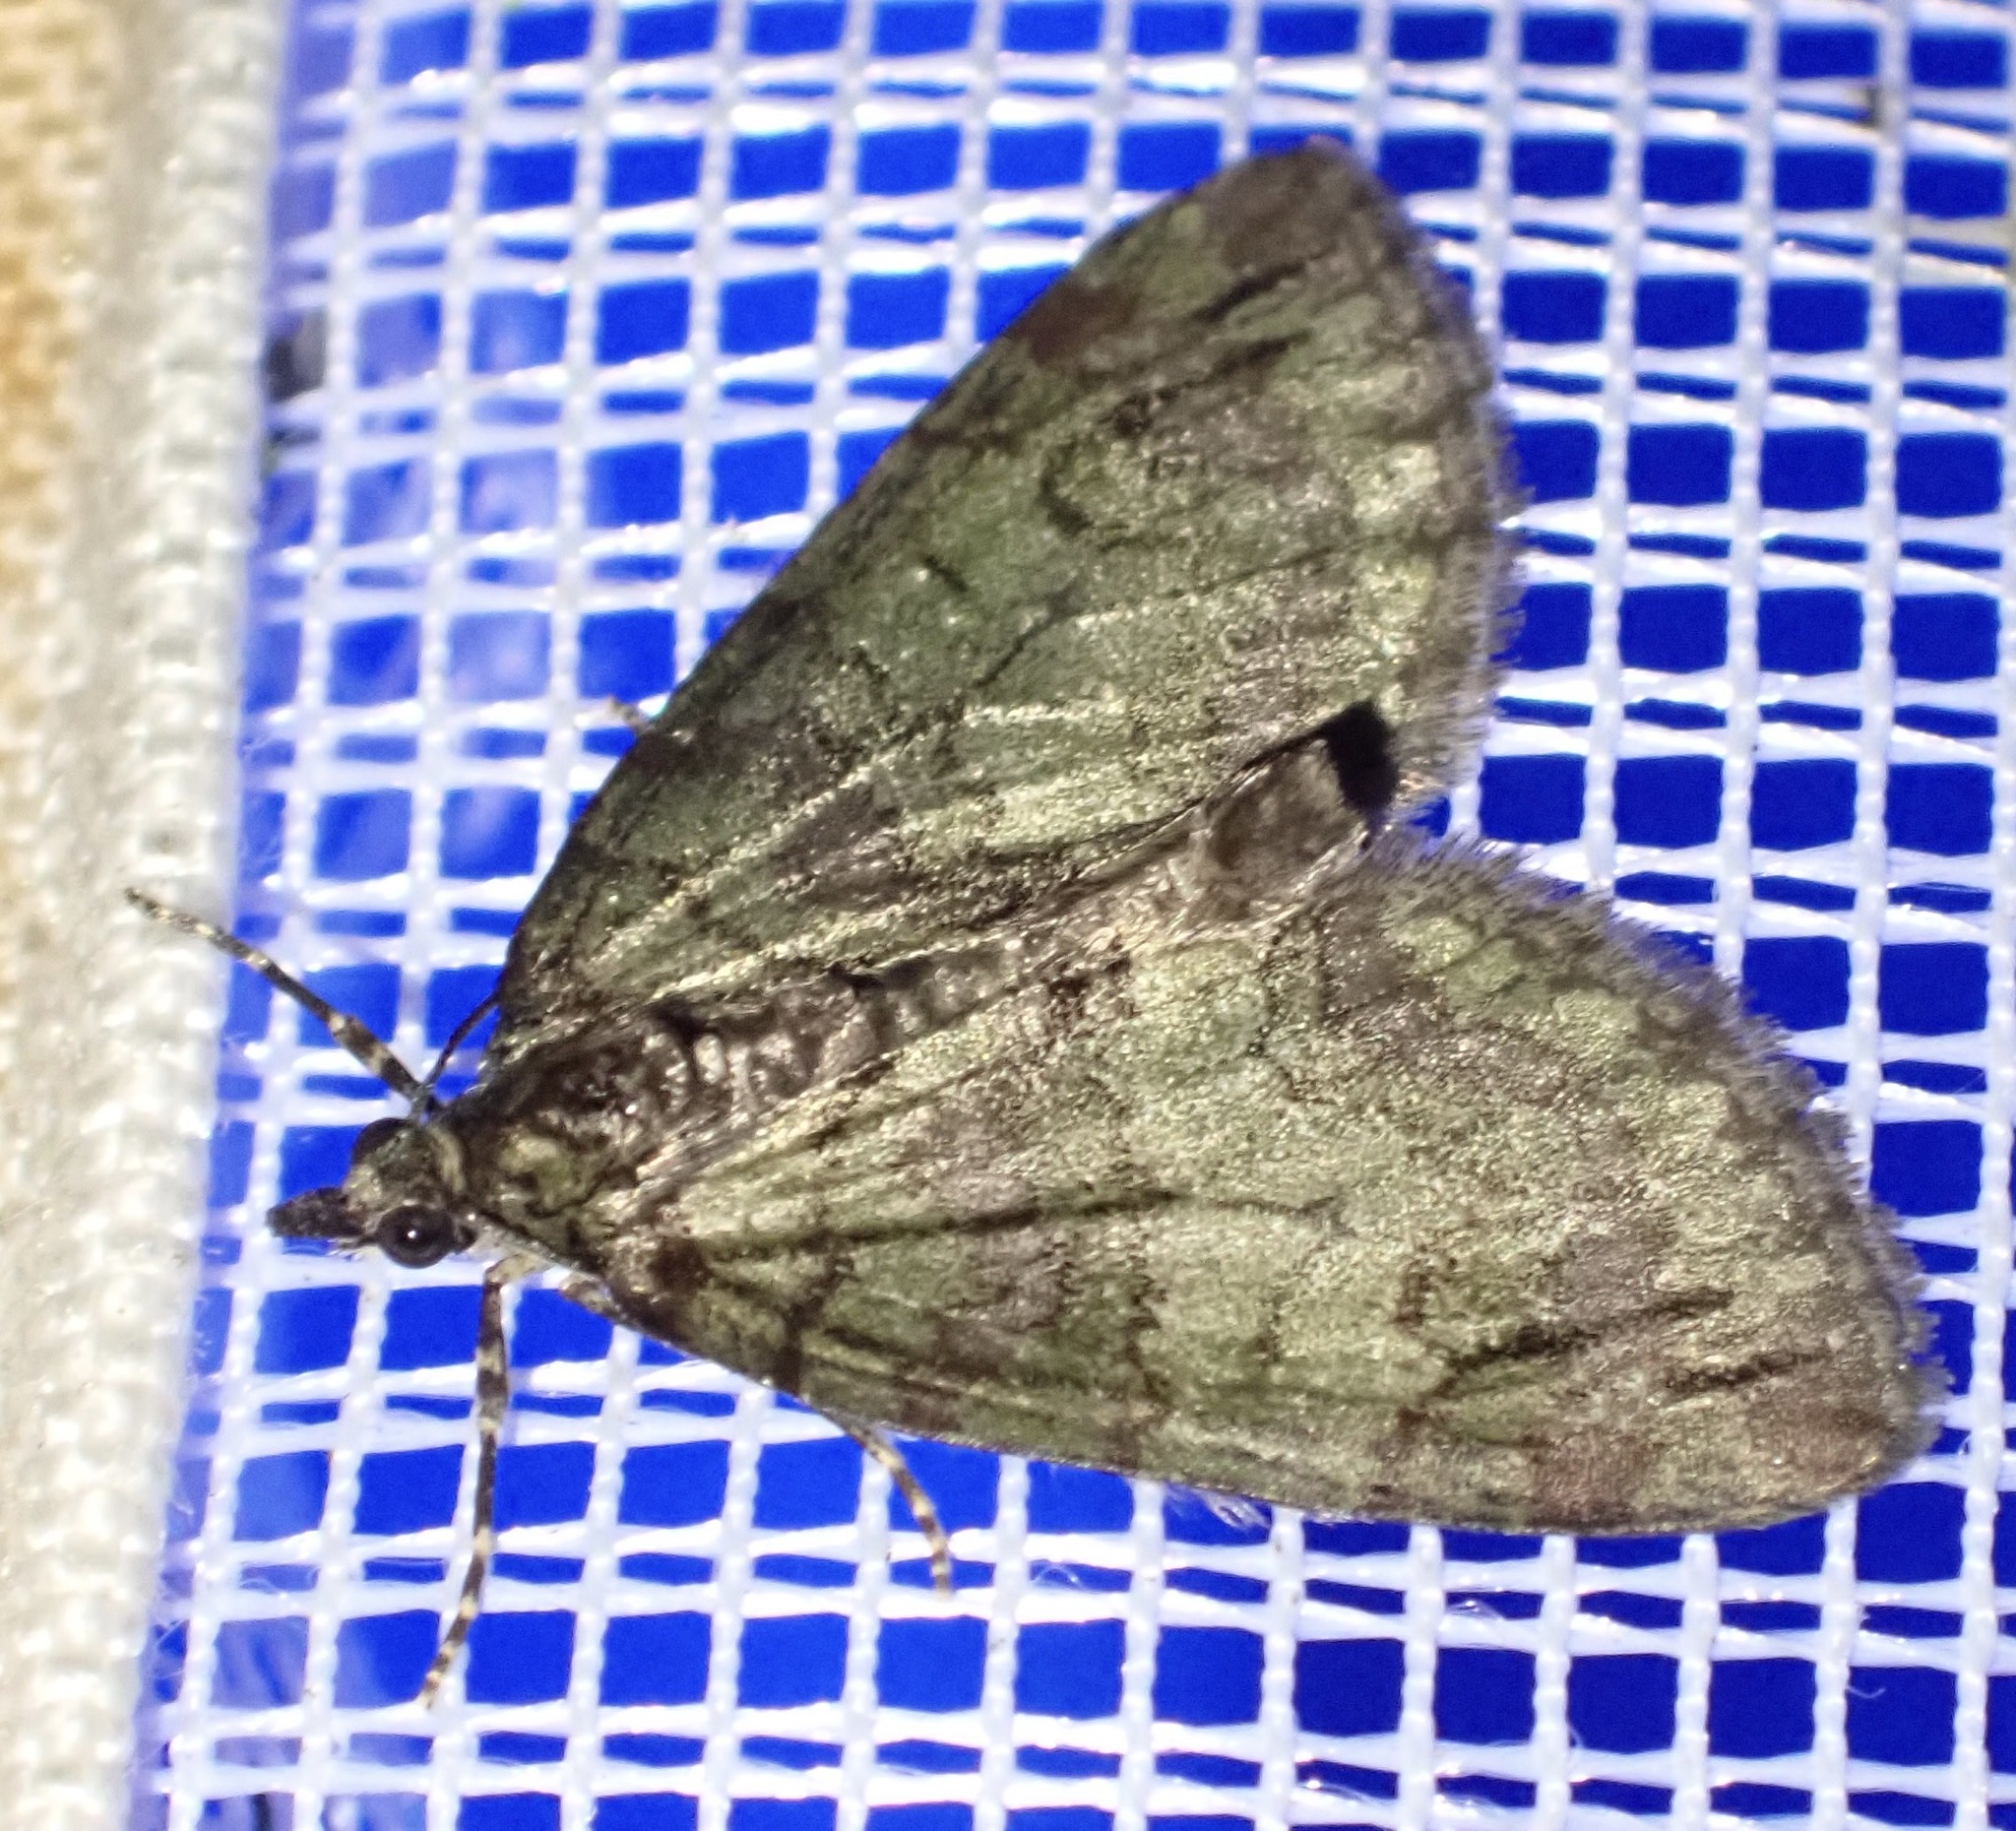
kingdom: Animalia
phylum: Arthropoda
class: Insecta
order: Lepidoptera
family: Geometridae
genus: Hydriomena
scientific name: Hydriomena impluviata
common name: May highflyer
